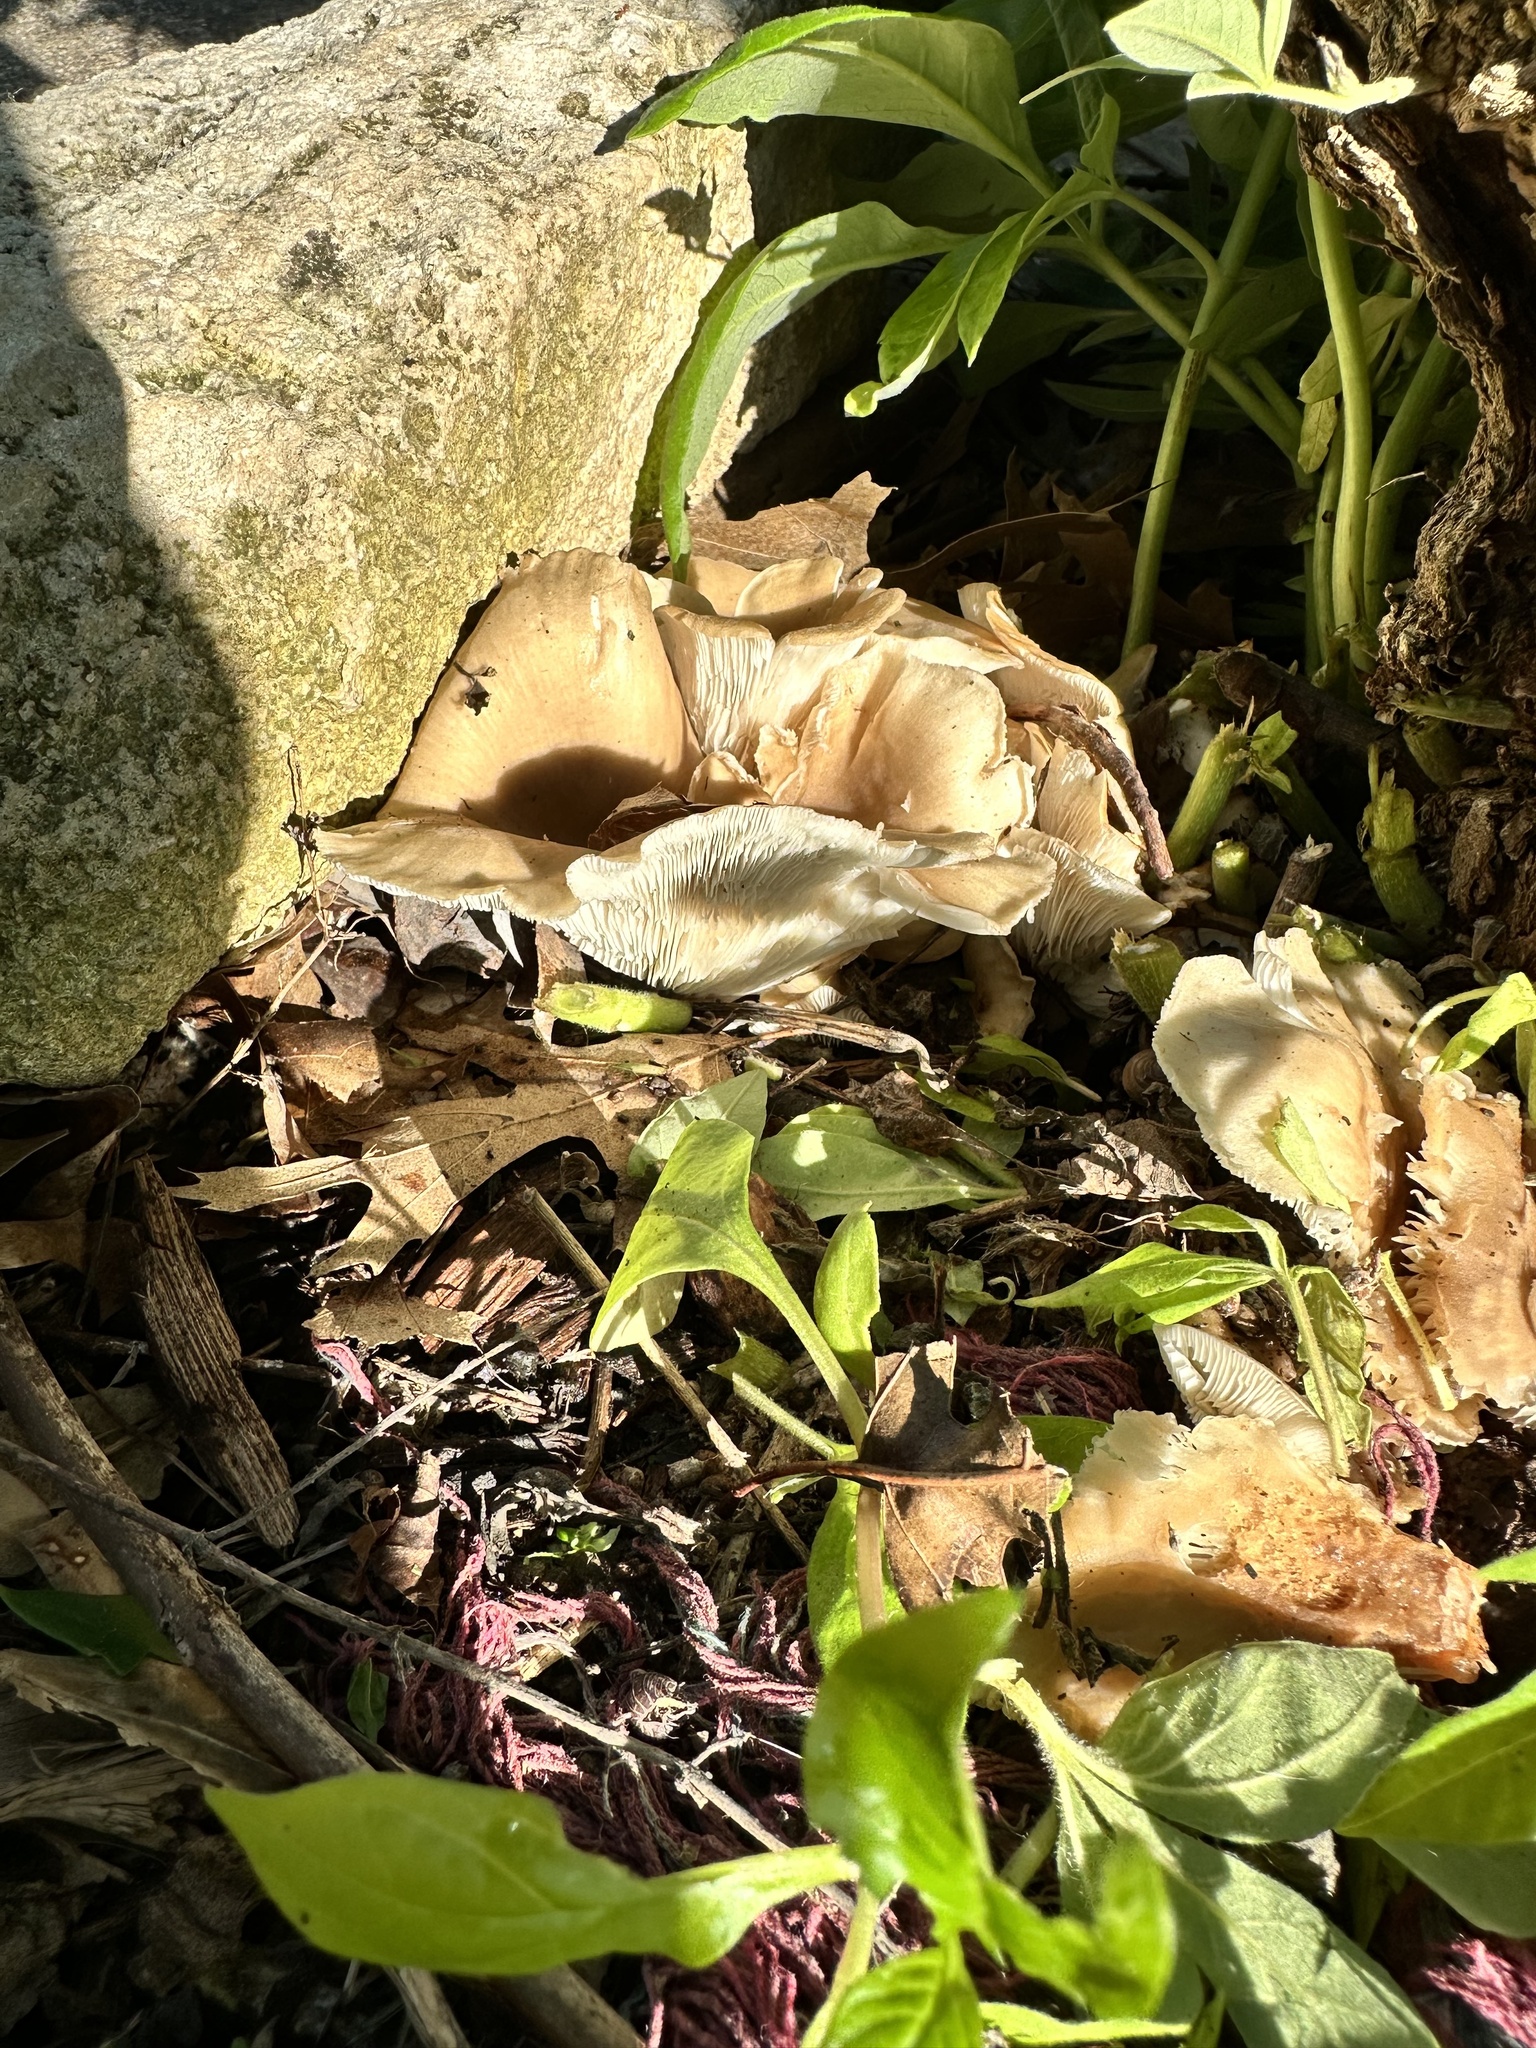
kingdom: Fungi
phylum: Basidiomycota
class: Agaricomycetes
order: Agaricales
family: Pleurotaceae
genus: Hohenbuehelia
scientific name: Hohenbuehelia petaloides
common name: Shoehorn oyster
